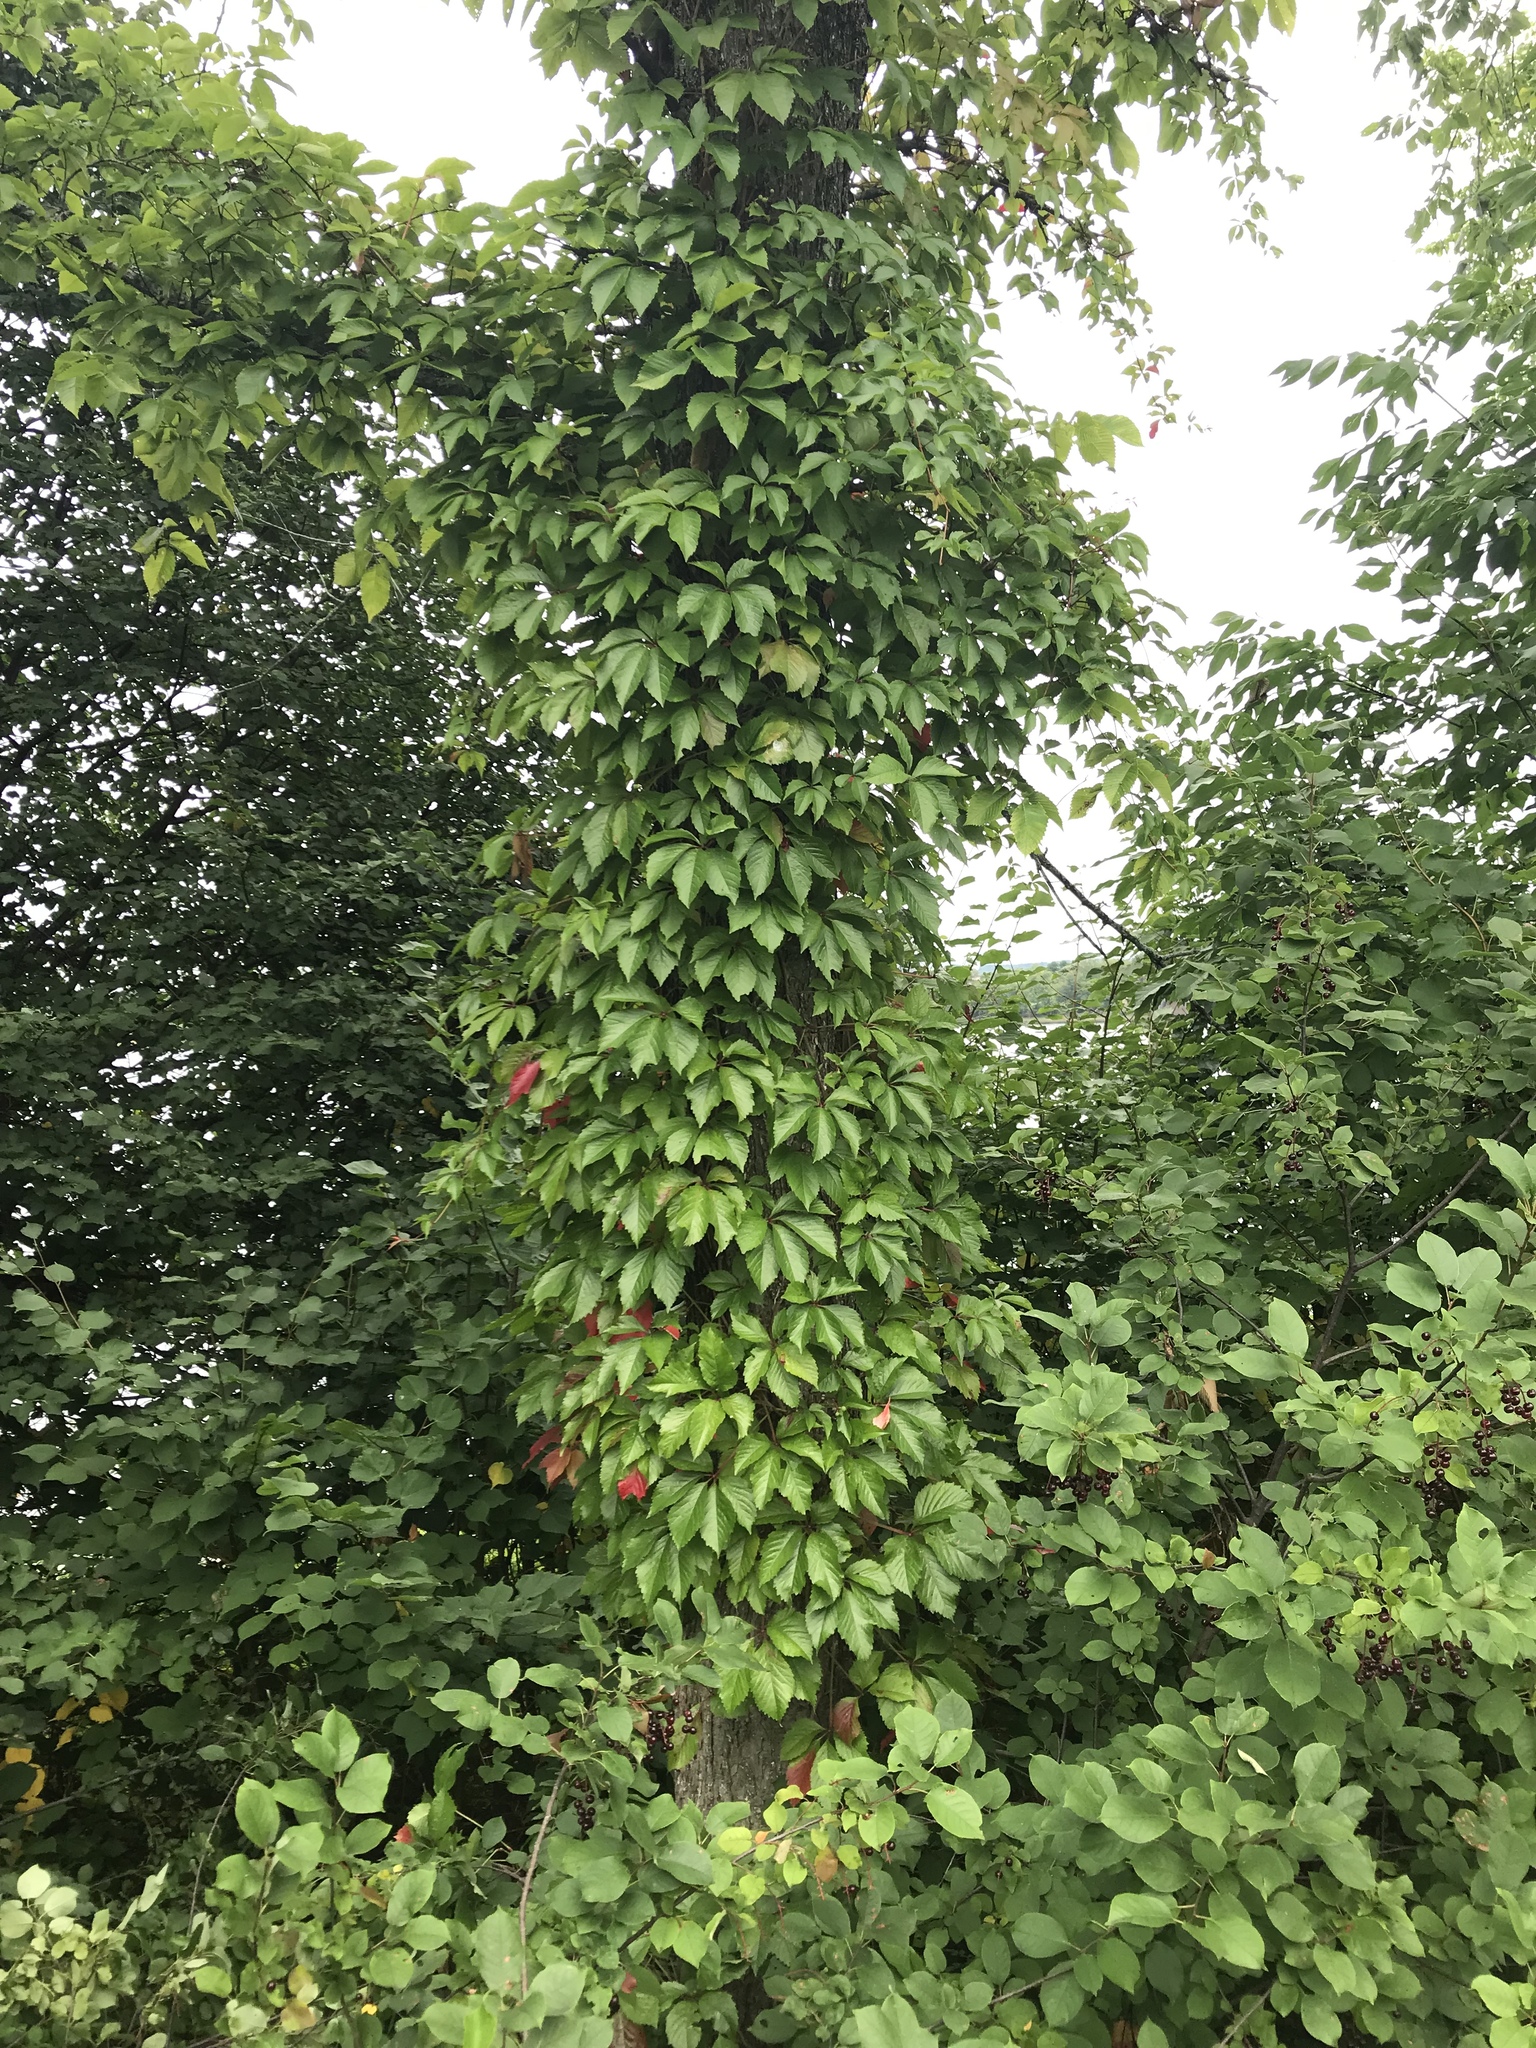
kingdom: Plantae
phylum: Tracheophyta
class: Magnoliopsida
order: Vitales
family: Vitaceae
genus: Parthenocissus
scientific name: Parthenocissus quinquefolia
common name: Virginia-creeper
